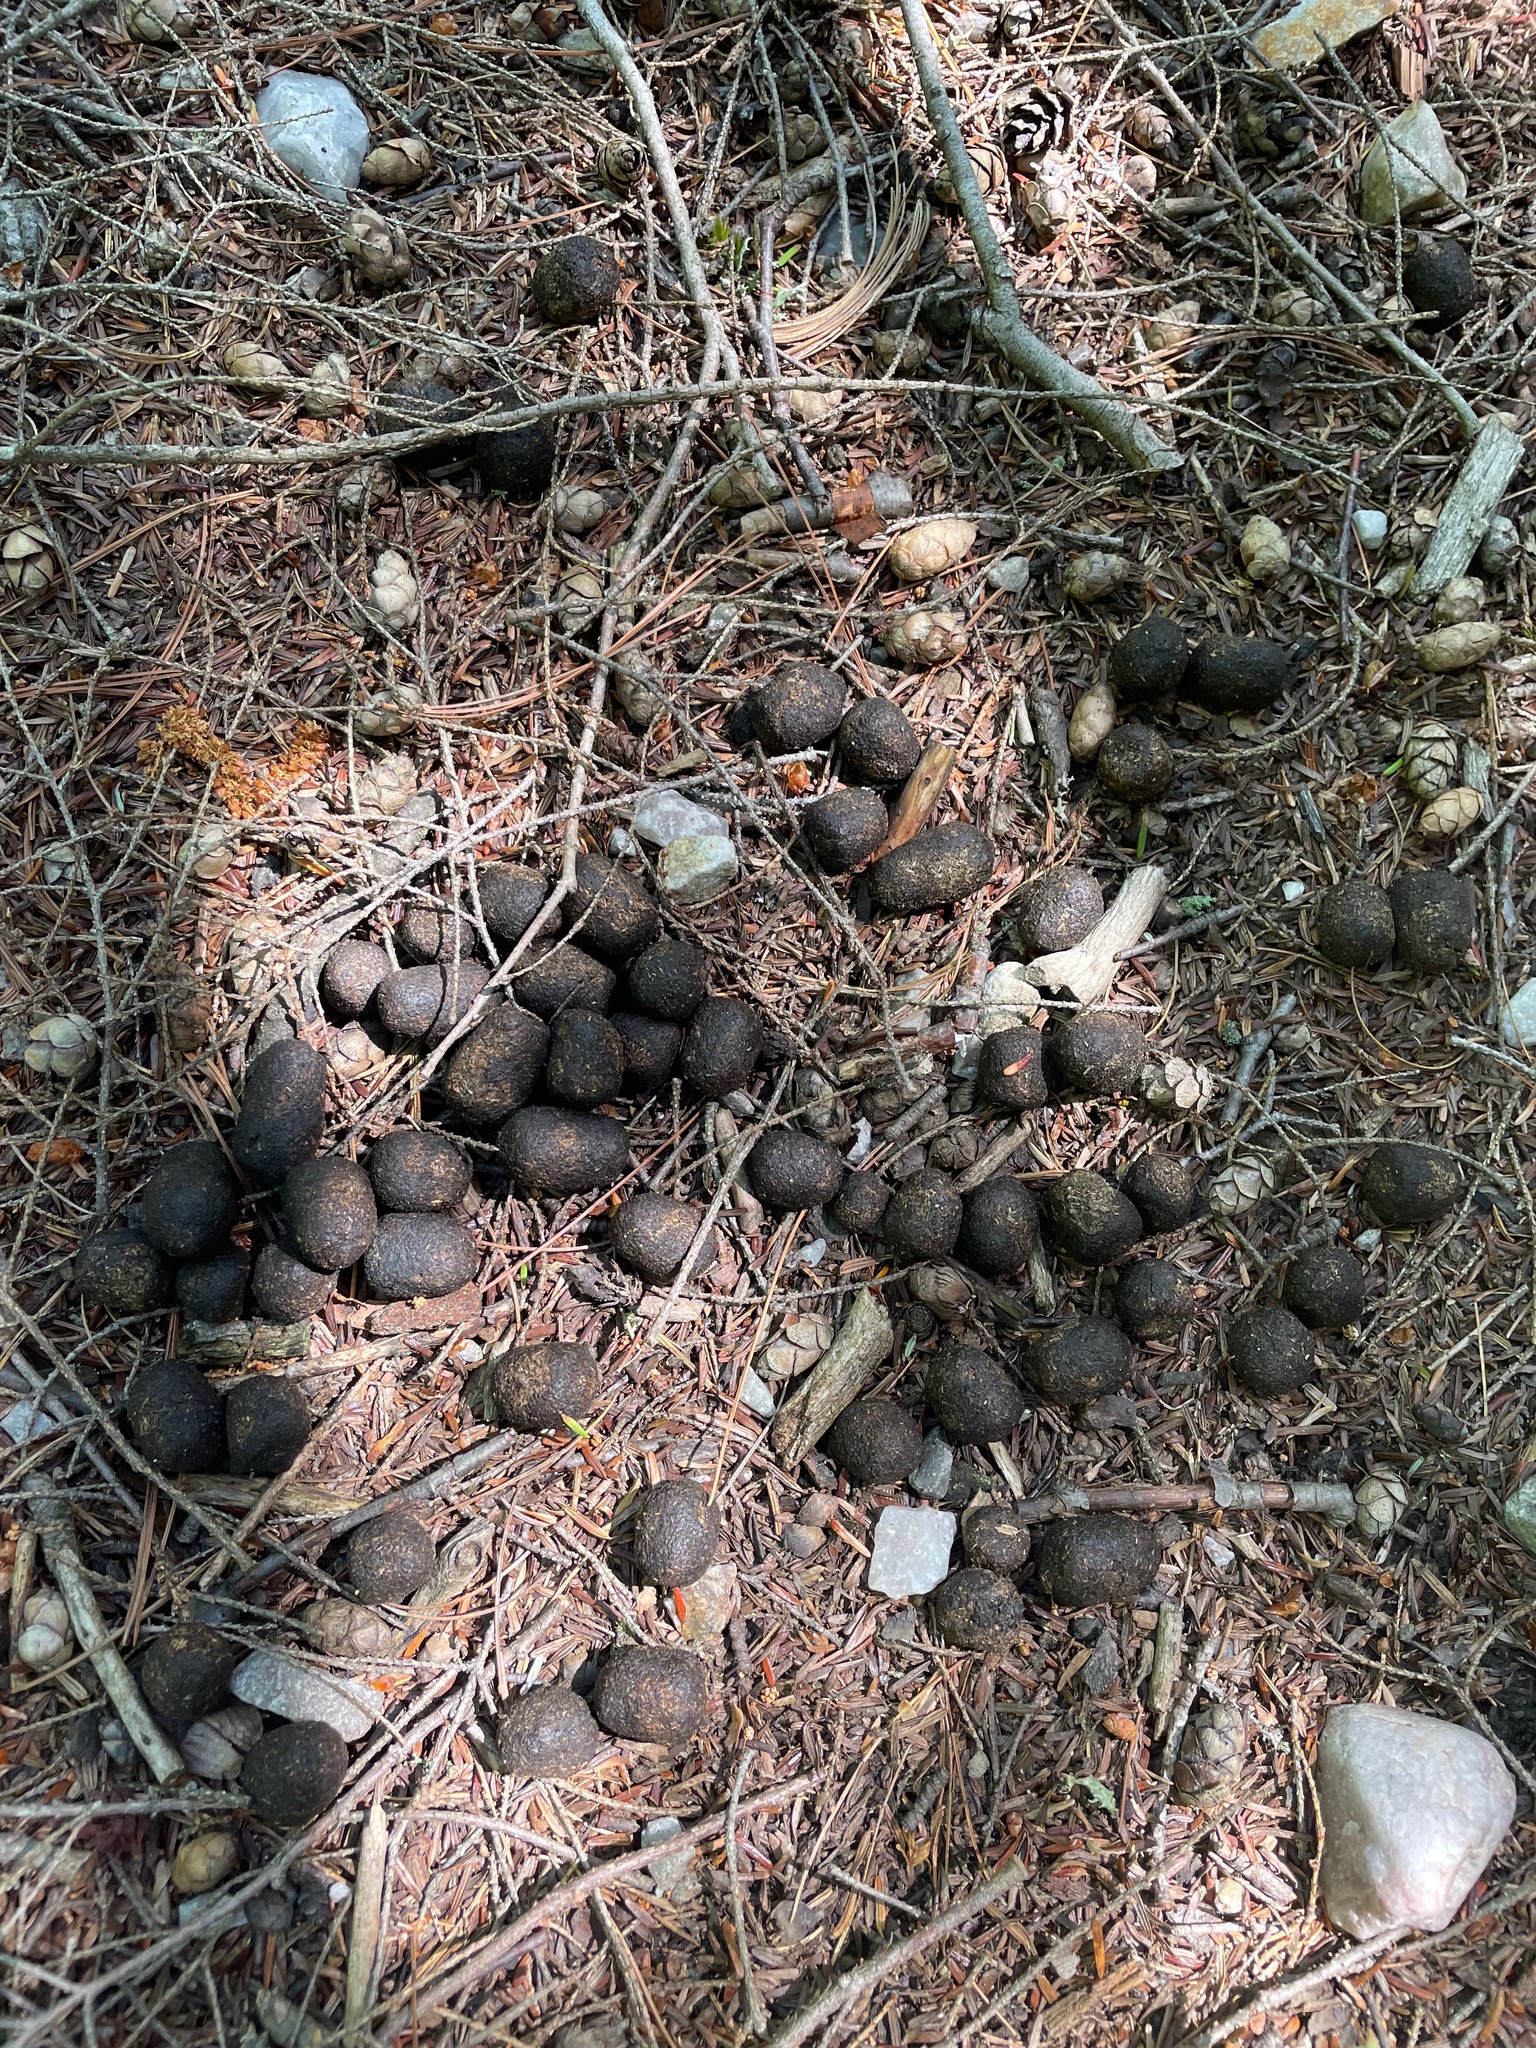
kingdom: Animalia
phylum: Chordata
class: Mammalia
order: Artiodactyla
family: Cervidae
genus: Odocoileus
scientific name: Odocoileus virginianus
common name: White-tailed deer
